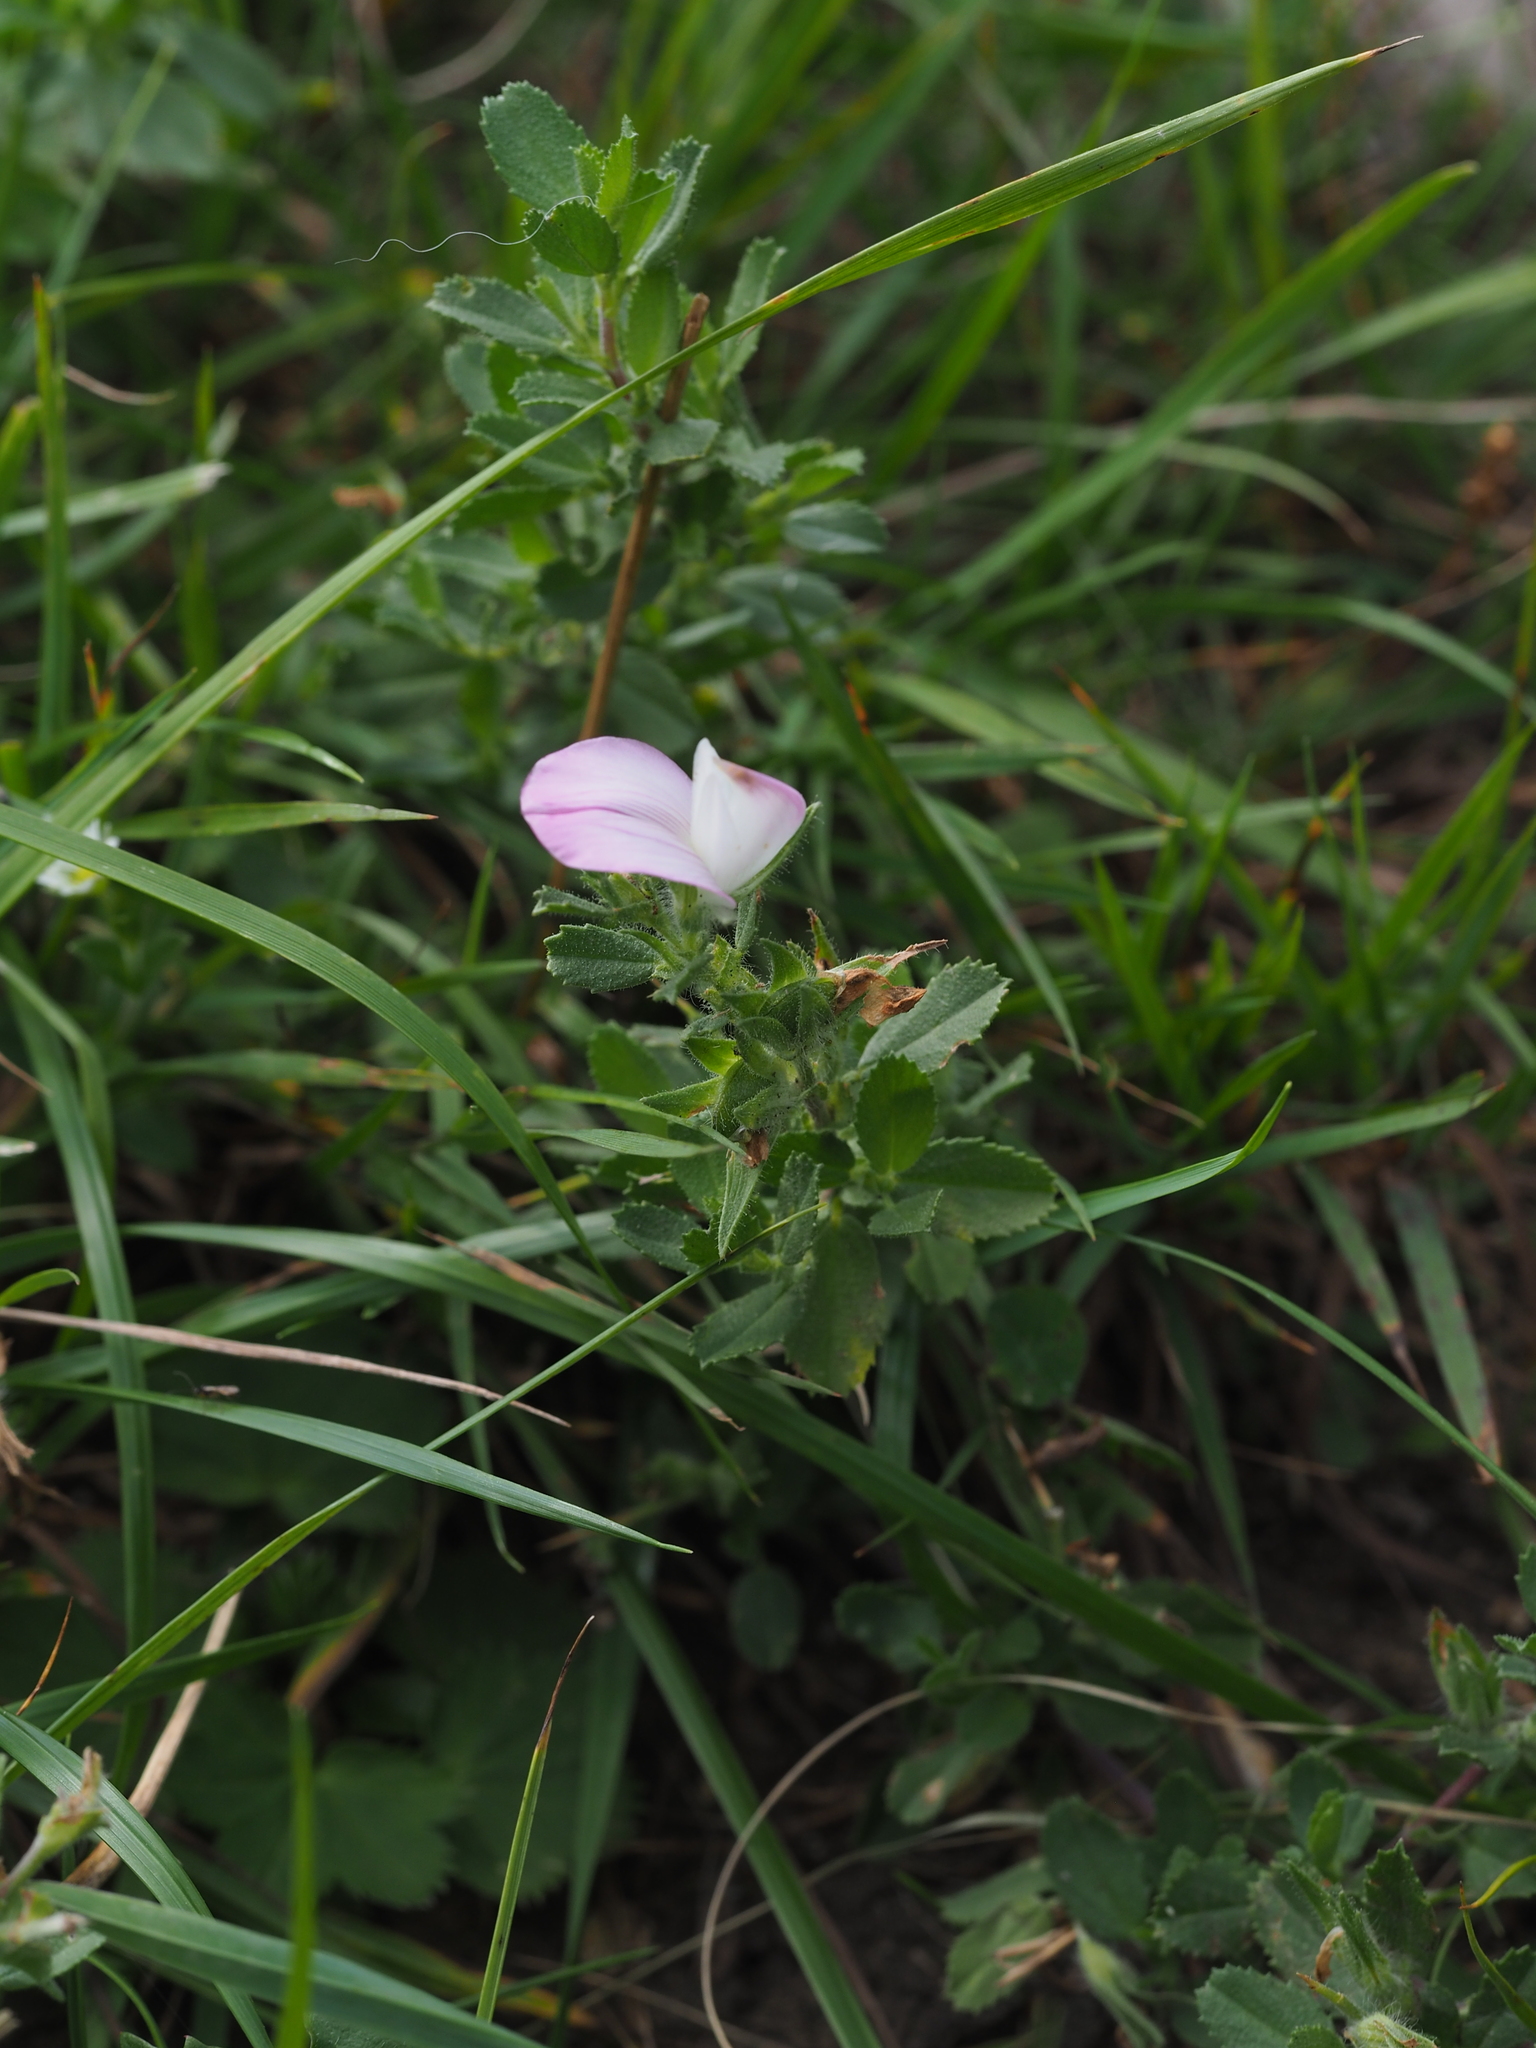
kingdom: Plantae
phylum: Tracheophyta
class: Magnoliopsida
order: Fabales
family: Fabaceae
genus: Ononis
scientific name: Ononis spinosa
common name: Spiny restharrow
